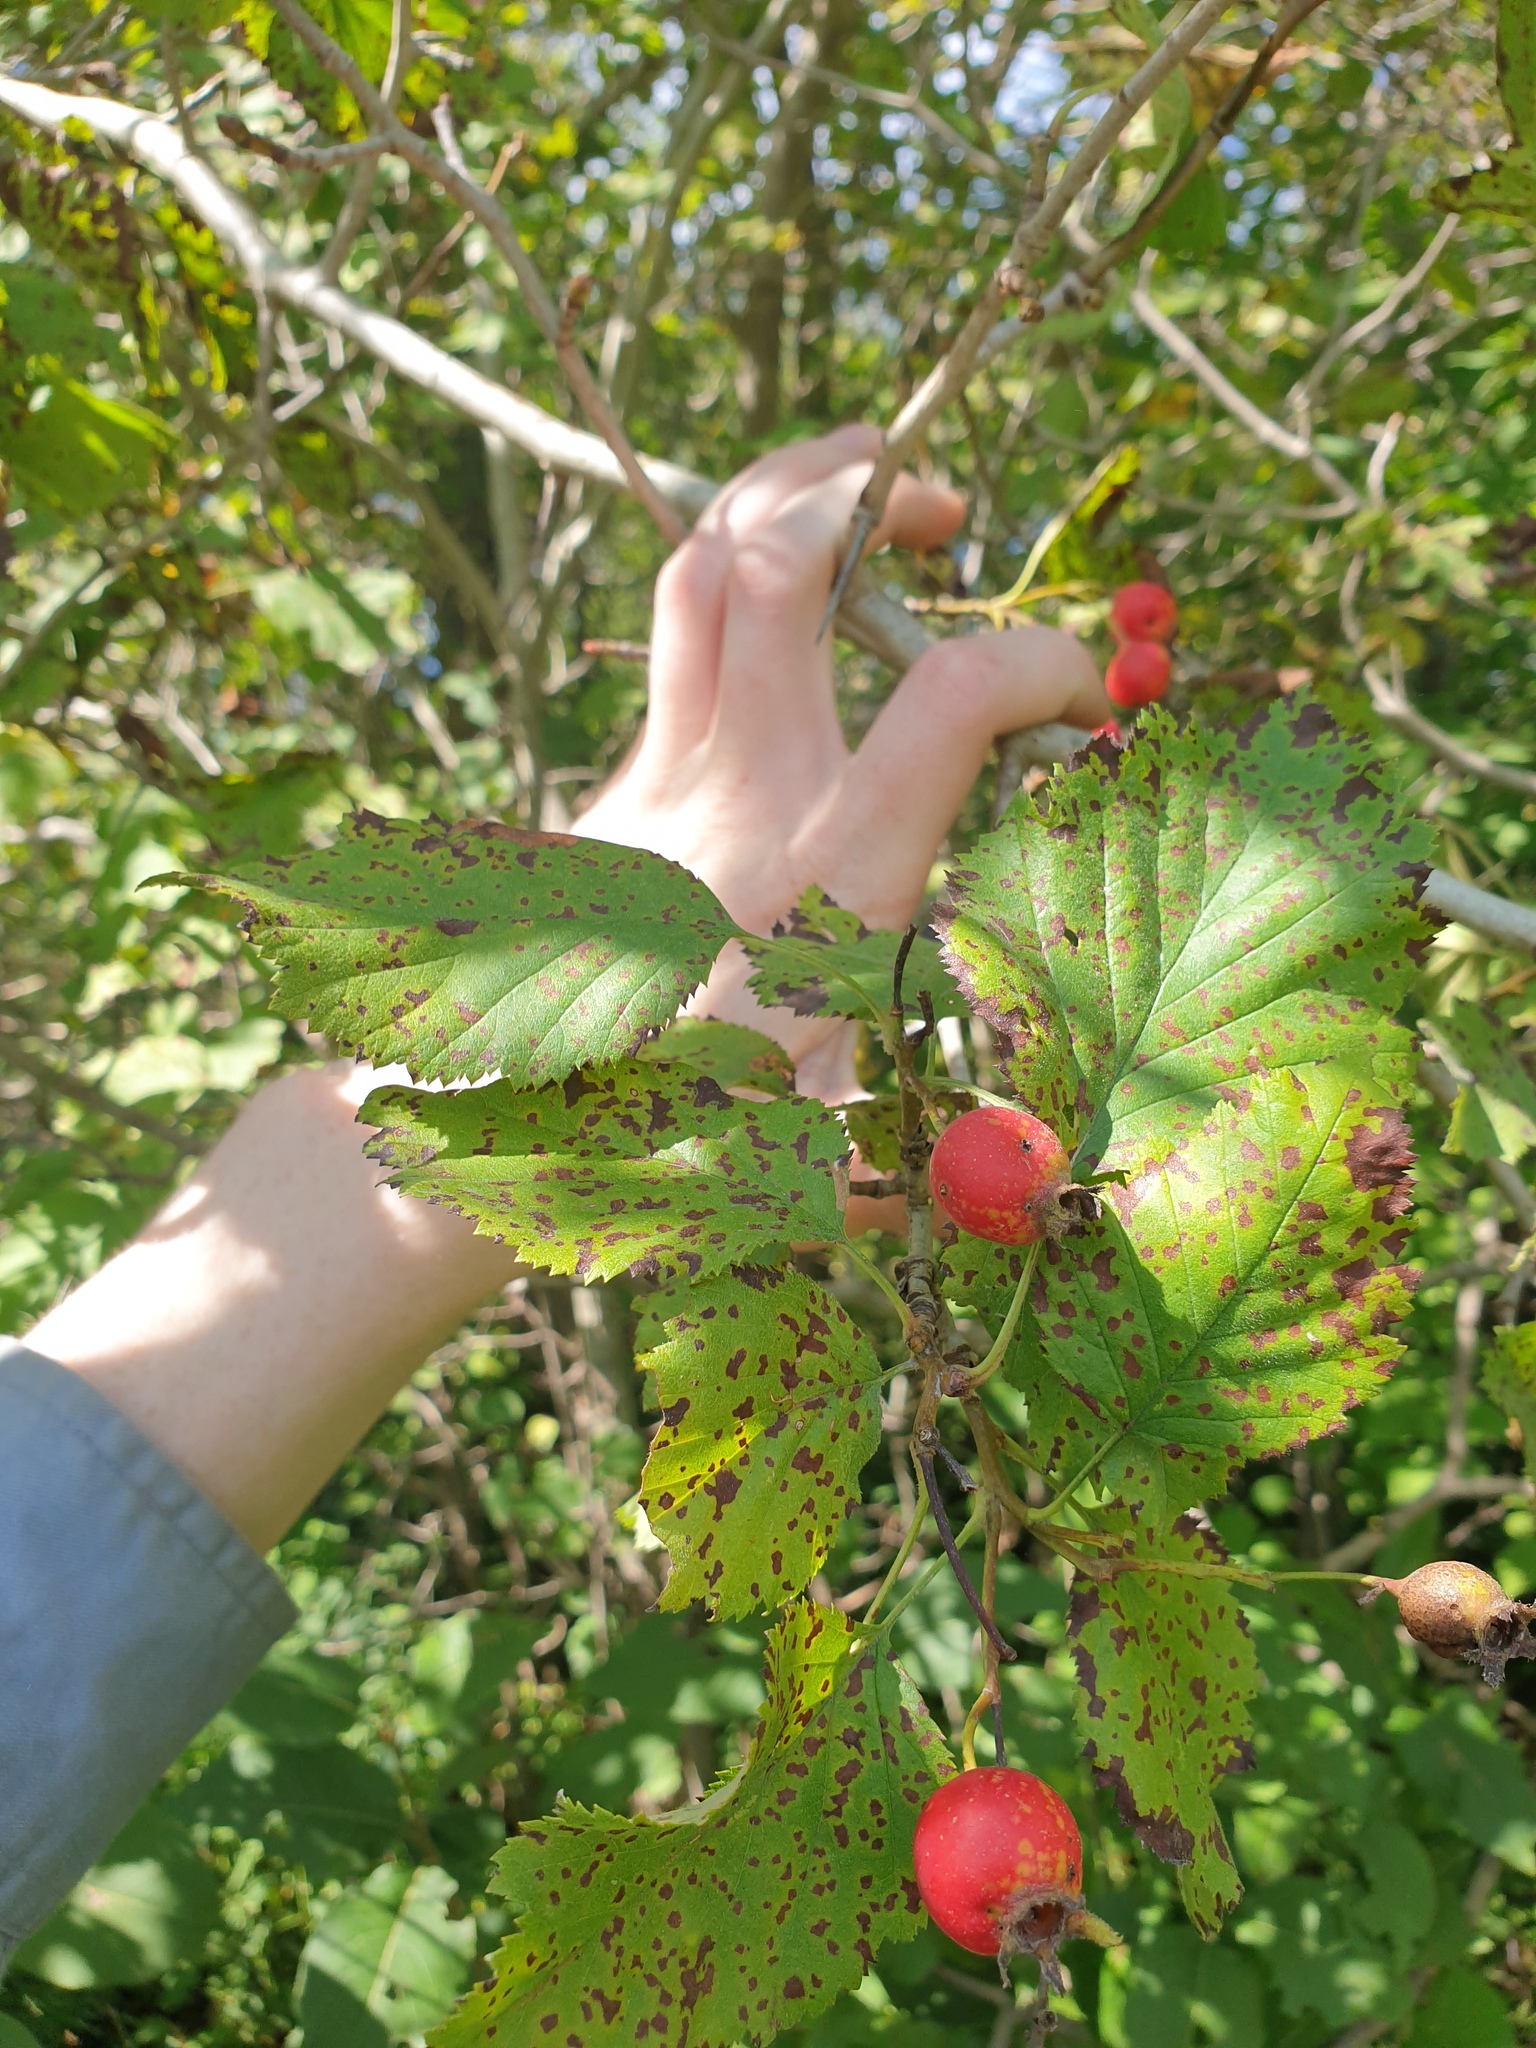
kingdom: Plantae
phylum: Tracheophyta
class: Magnoliopsida
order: Rosales
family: Rosaceae
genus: Crataegus
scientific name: Crataegus mollis
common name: Downy hawthorn
